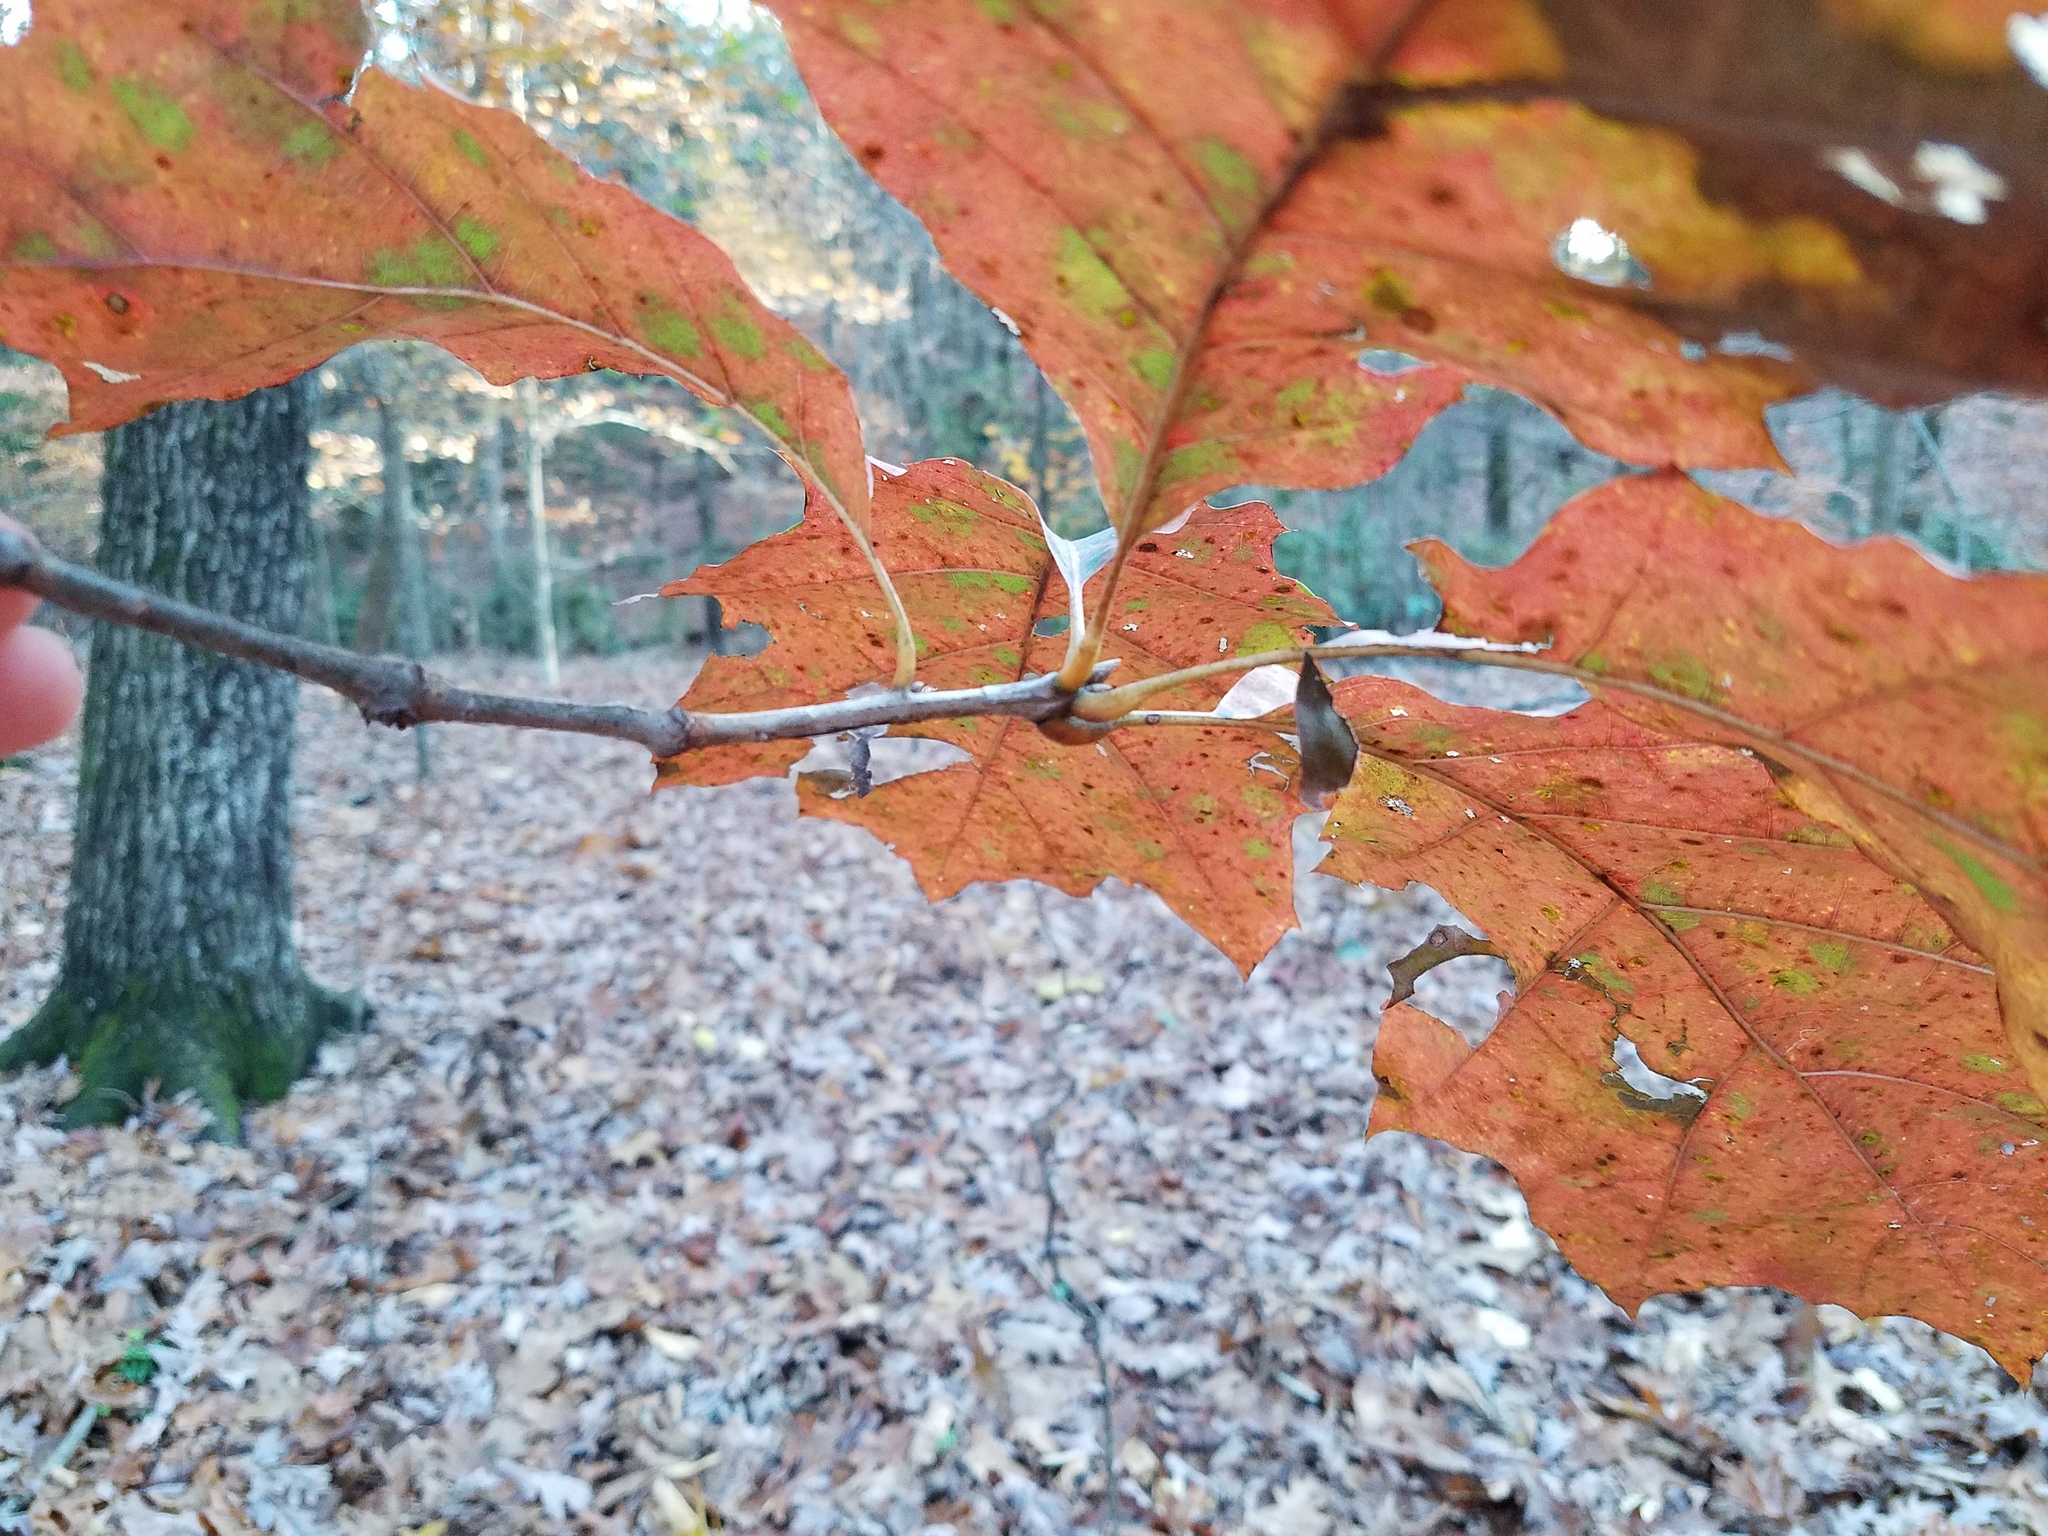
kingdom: Plantae
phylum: Tracheophyta
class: Magnoliopsida
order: Fagales
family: Fagaceae
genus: Quercus
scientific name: Quercus rubra
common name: Red oak
